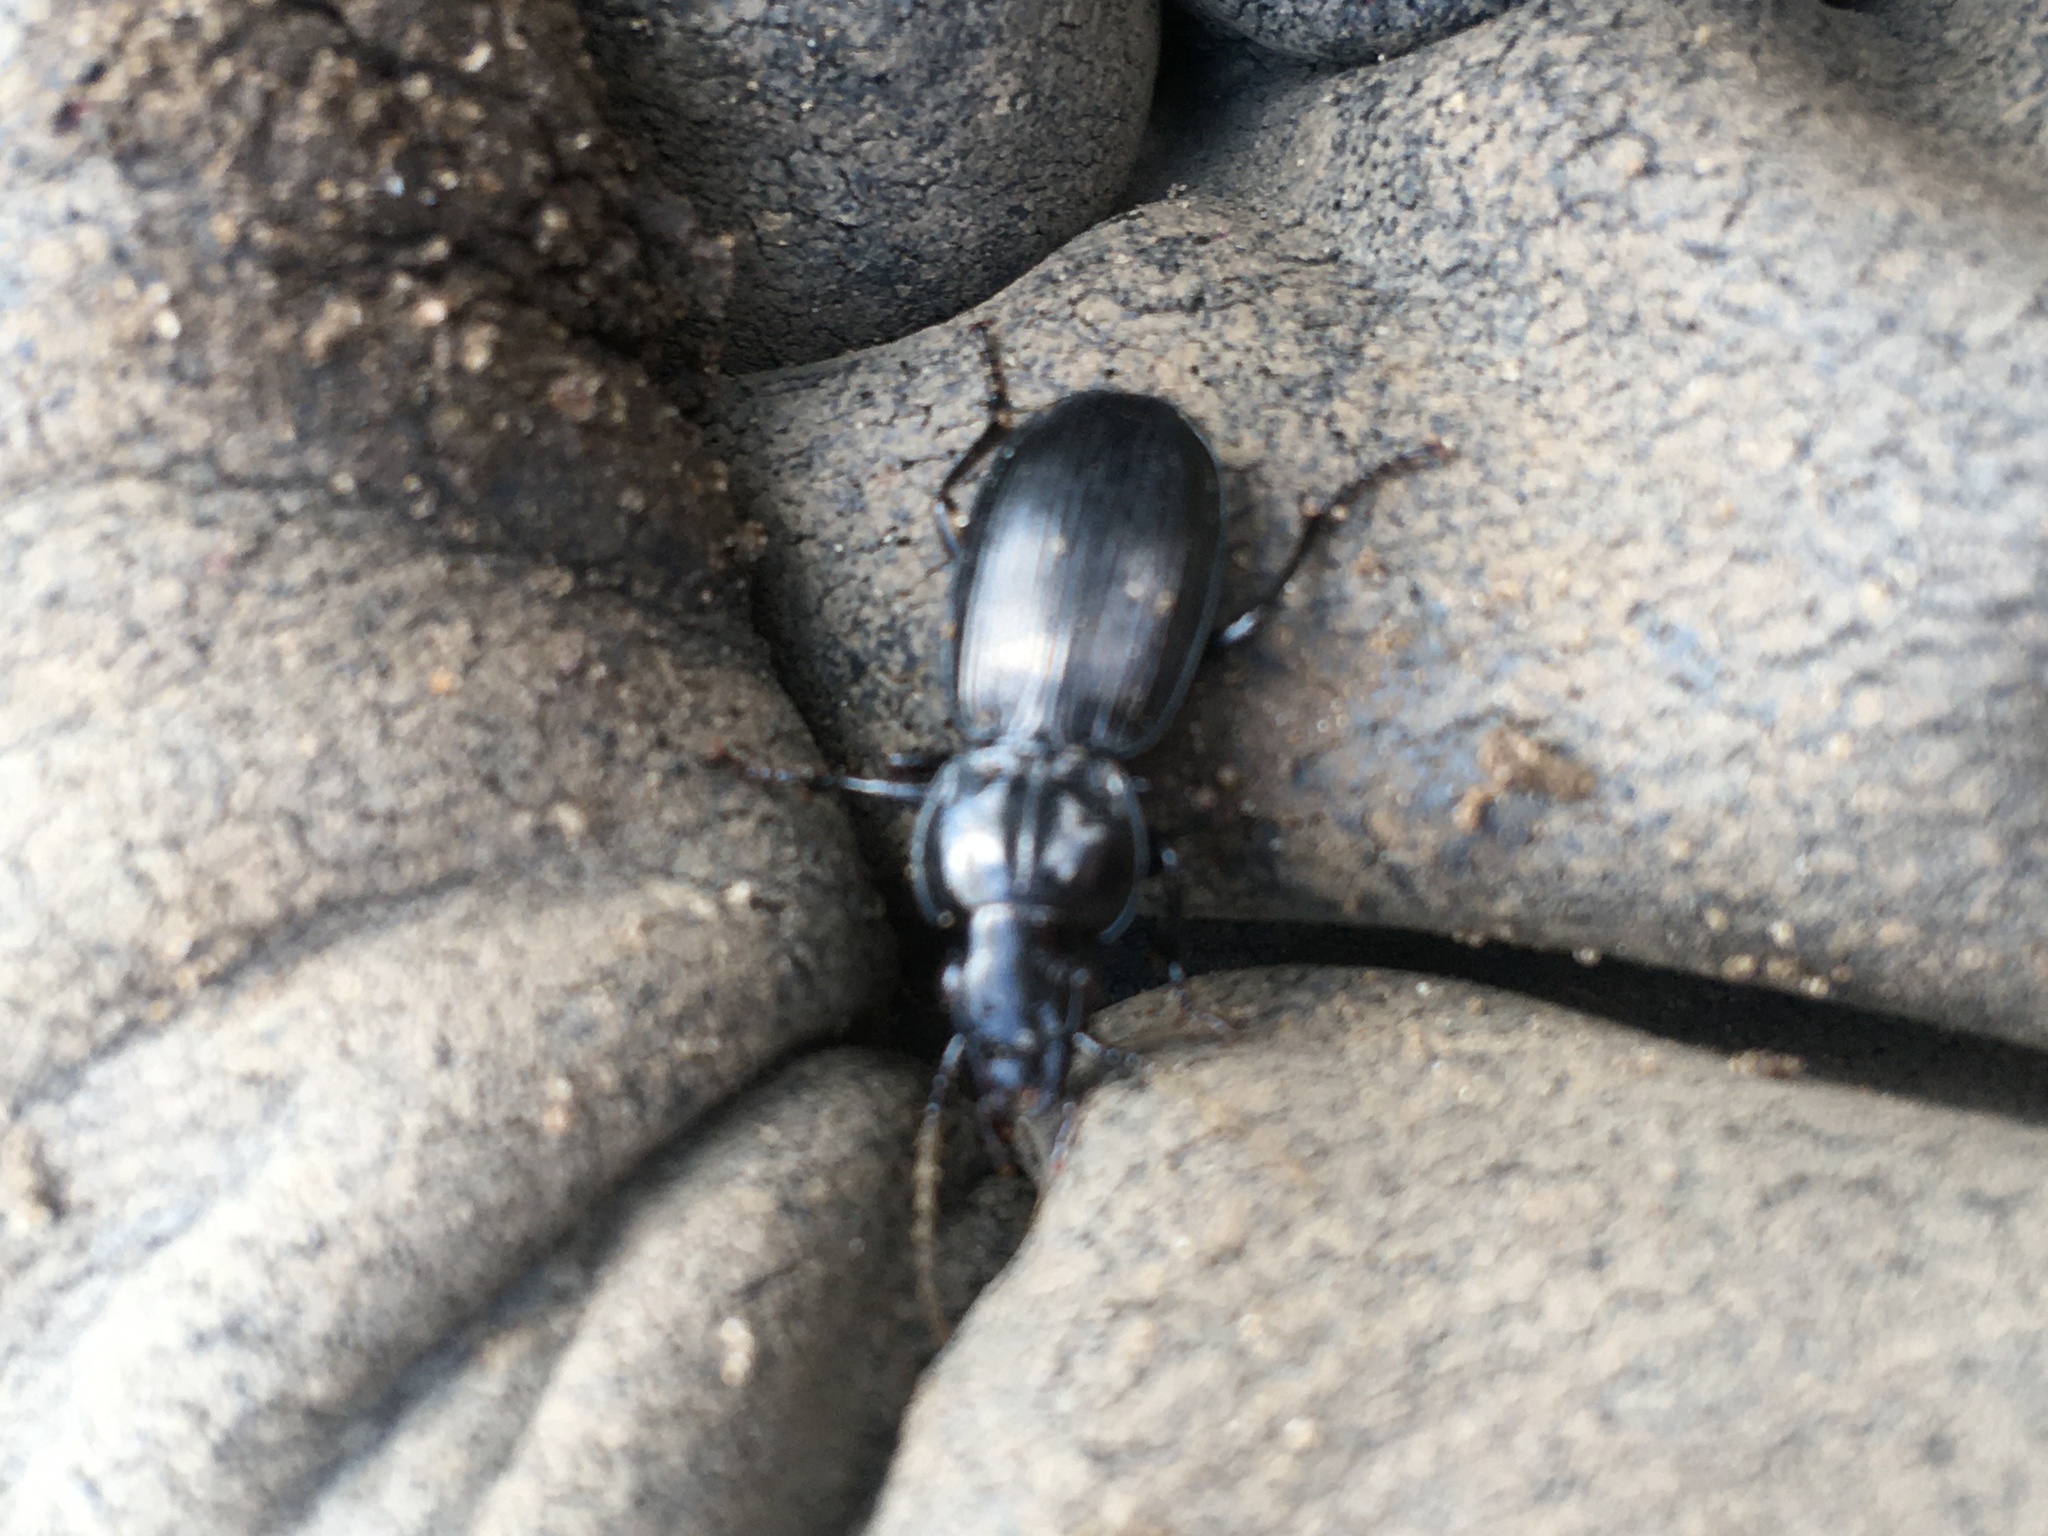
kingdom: Animalia
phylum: Arthropoda
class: Insecta
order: Coleoptera
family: Carabidae
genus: Pterostichus
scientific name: Pterostichus madidus
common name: Black clock
